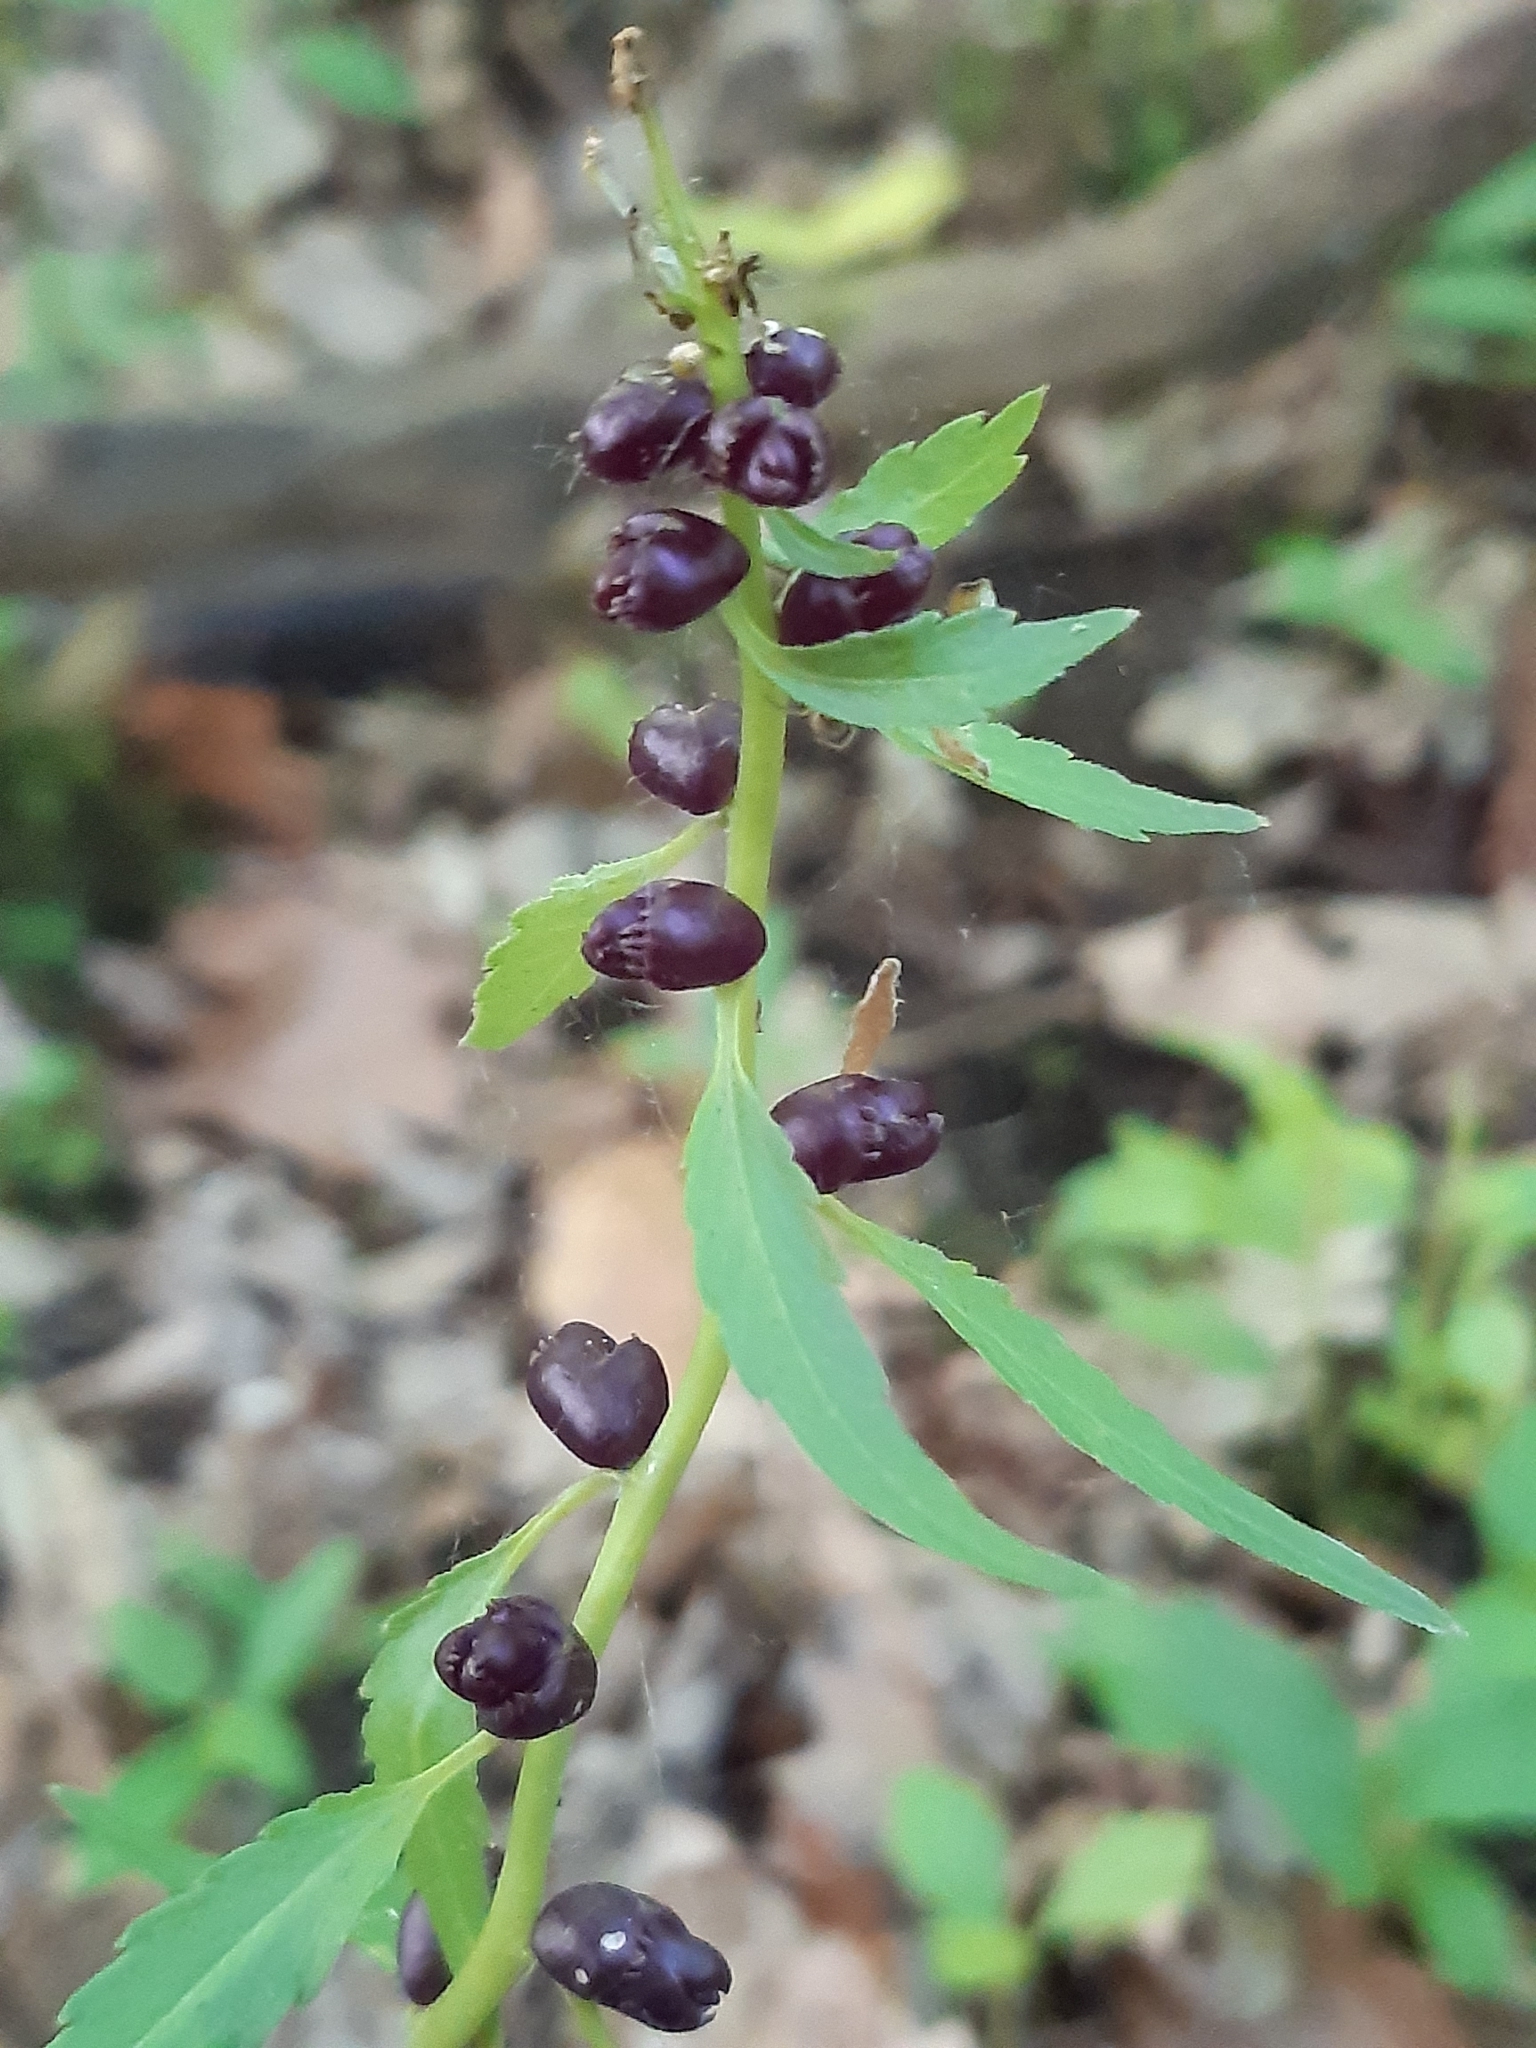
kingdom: Plantae
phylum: Tracheophyta
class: Magnoliopsida
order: Brassicales
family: Brassicaceae
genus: Cardamine
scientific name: Cardamine bulbifera
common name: Coralroot bittercress
